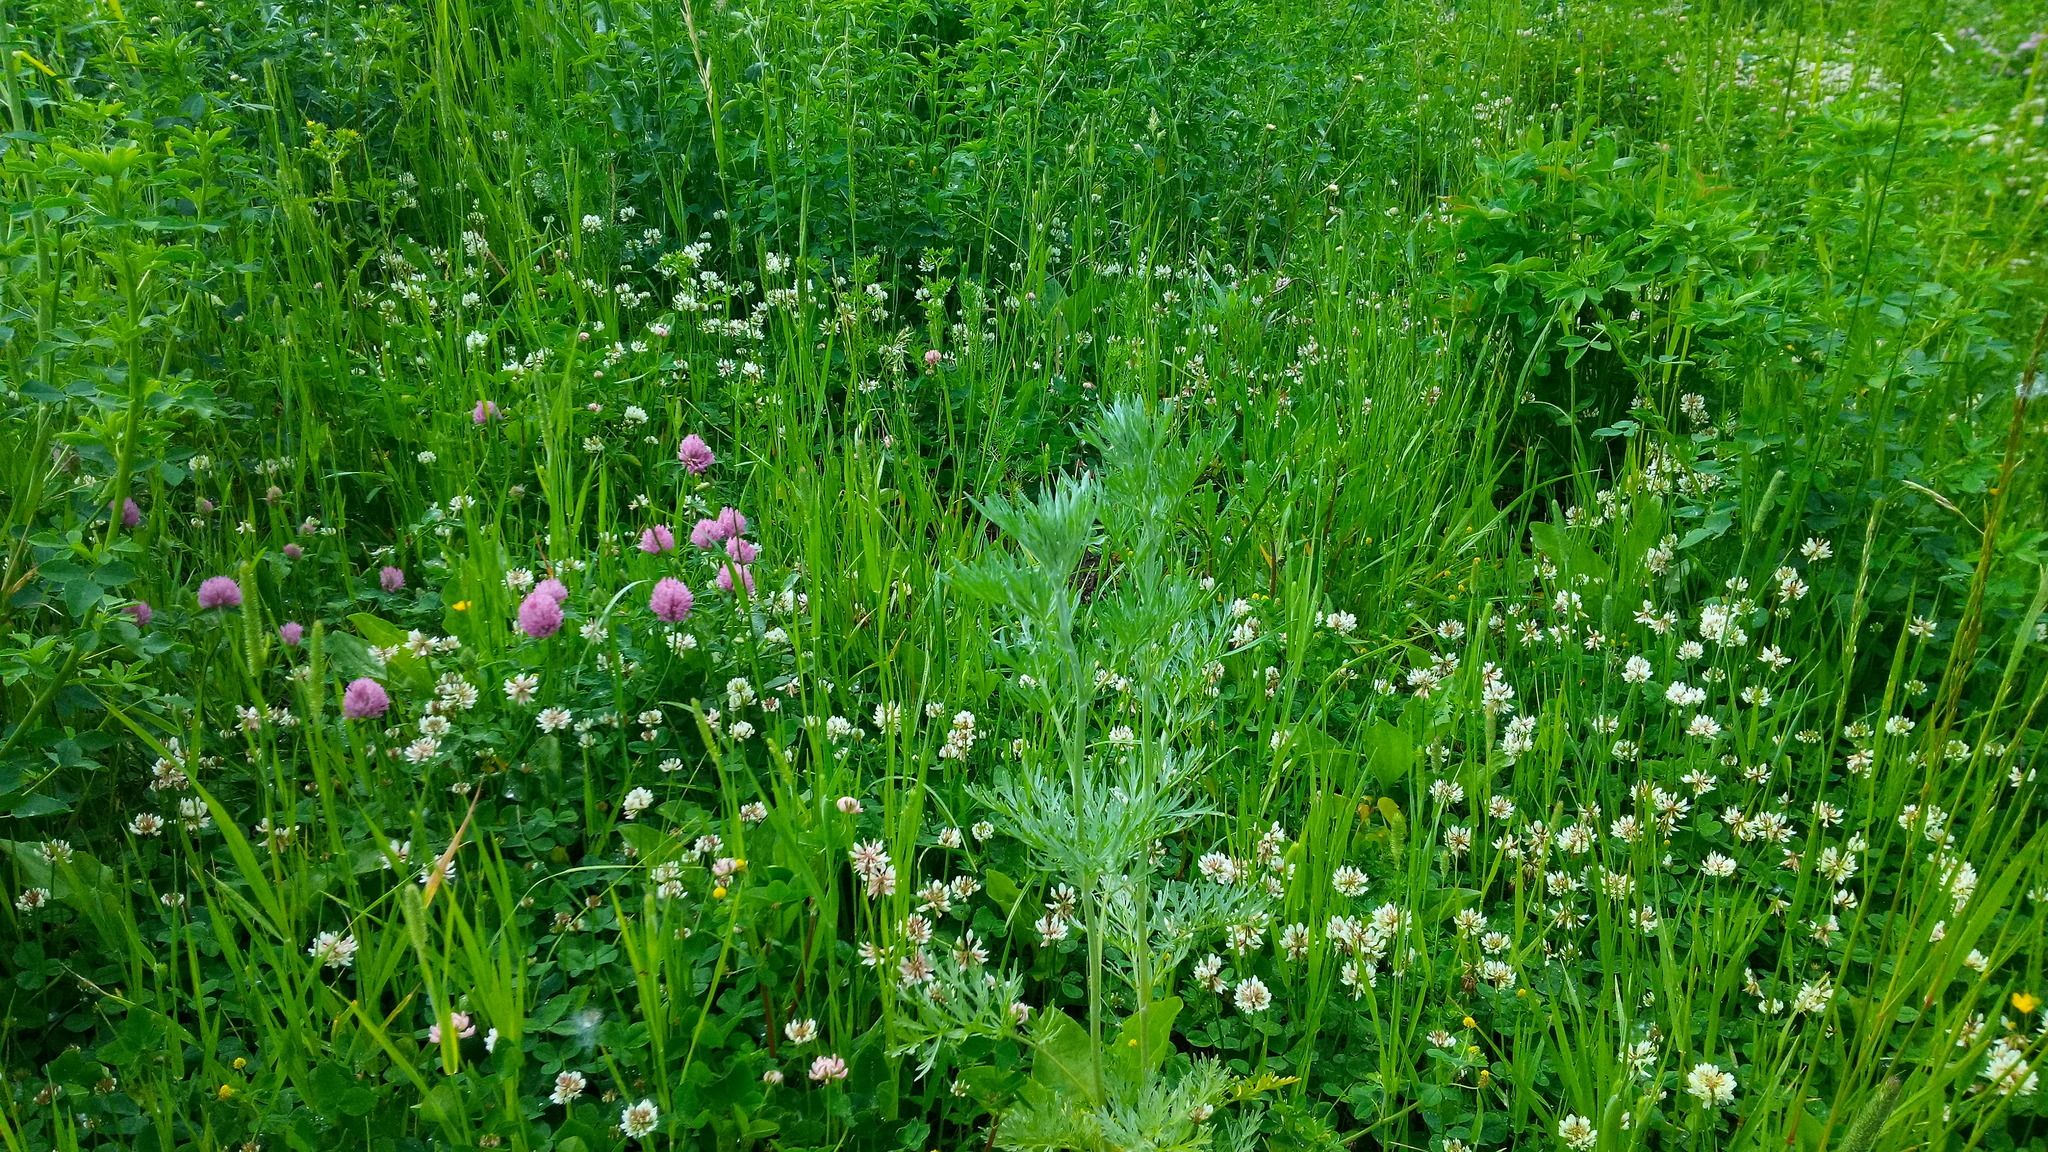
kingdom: Plantae
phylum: Tracheophyta
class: Magnoliopsida
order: Asterales
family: Asteraceae
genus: Artemisia
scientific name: Artemisia absinthium
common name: Wormwood
